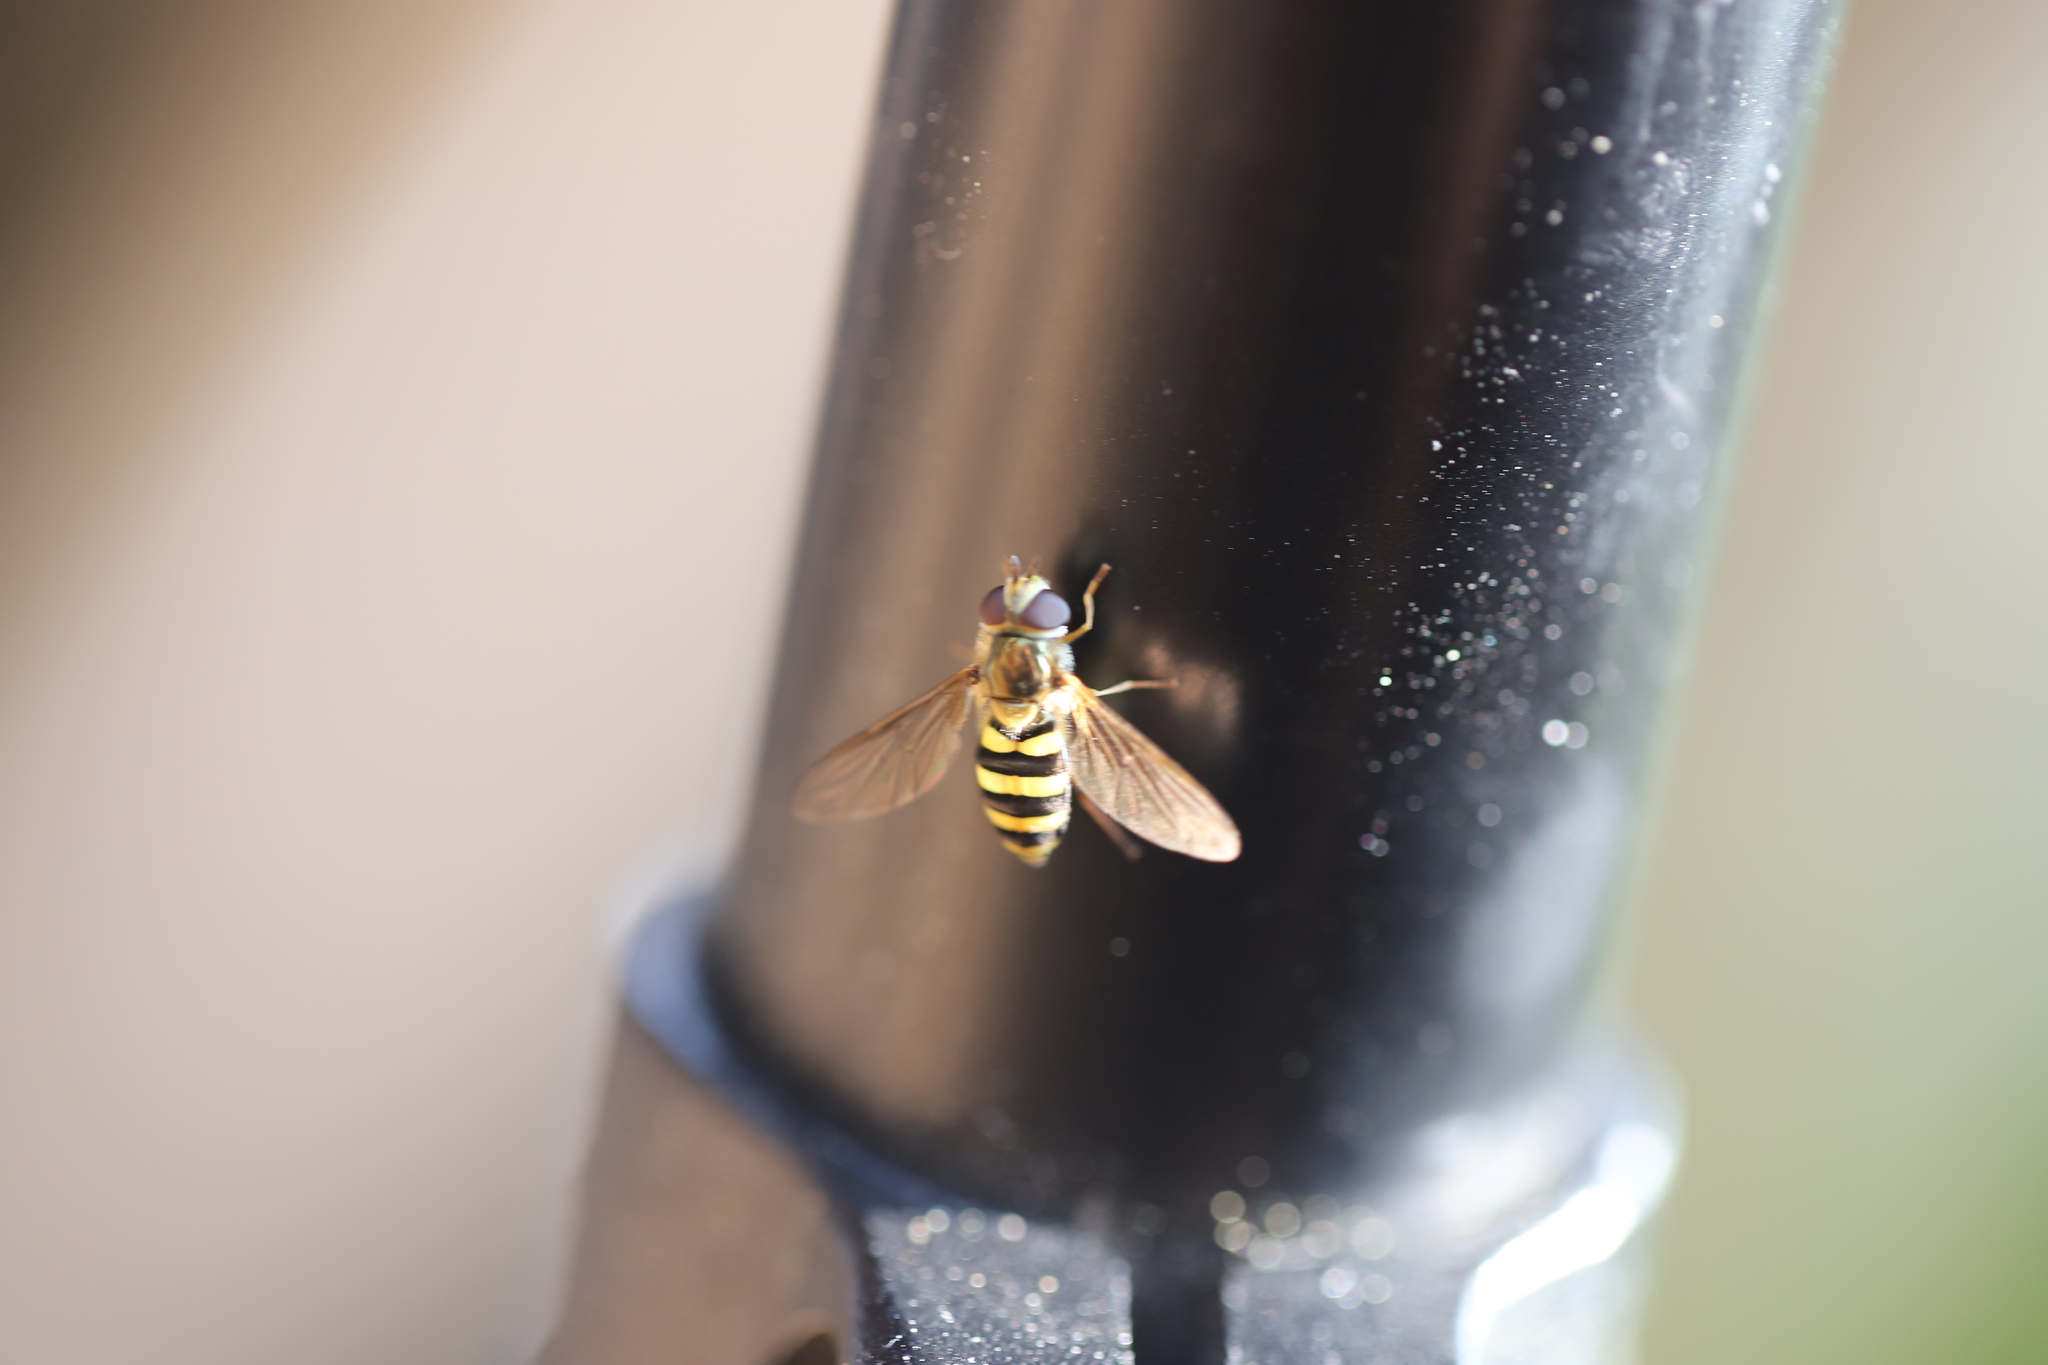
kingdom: Animalia
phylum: Arthropoda
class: Insecta
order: Diptera
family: Syrphidae
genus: Eupeodes
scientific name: Eupeodes
